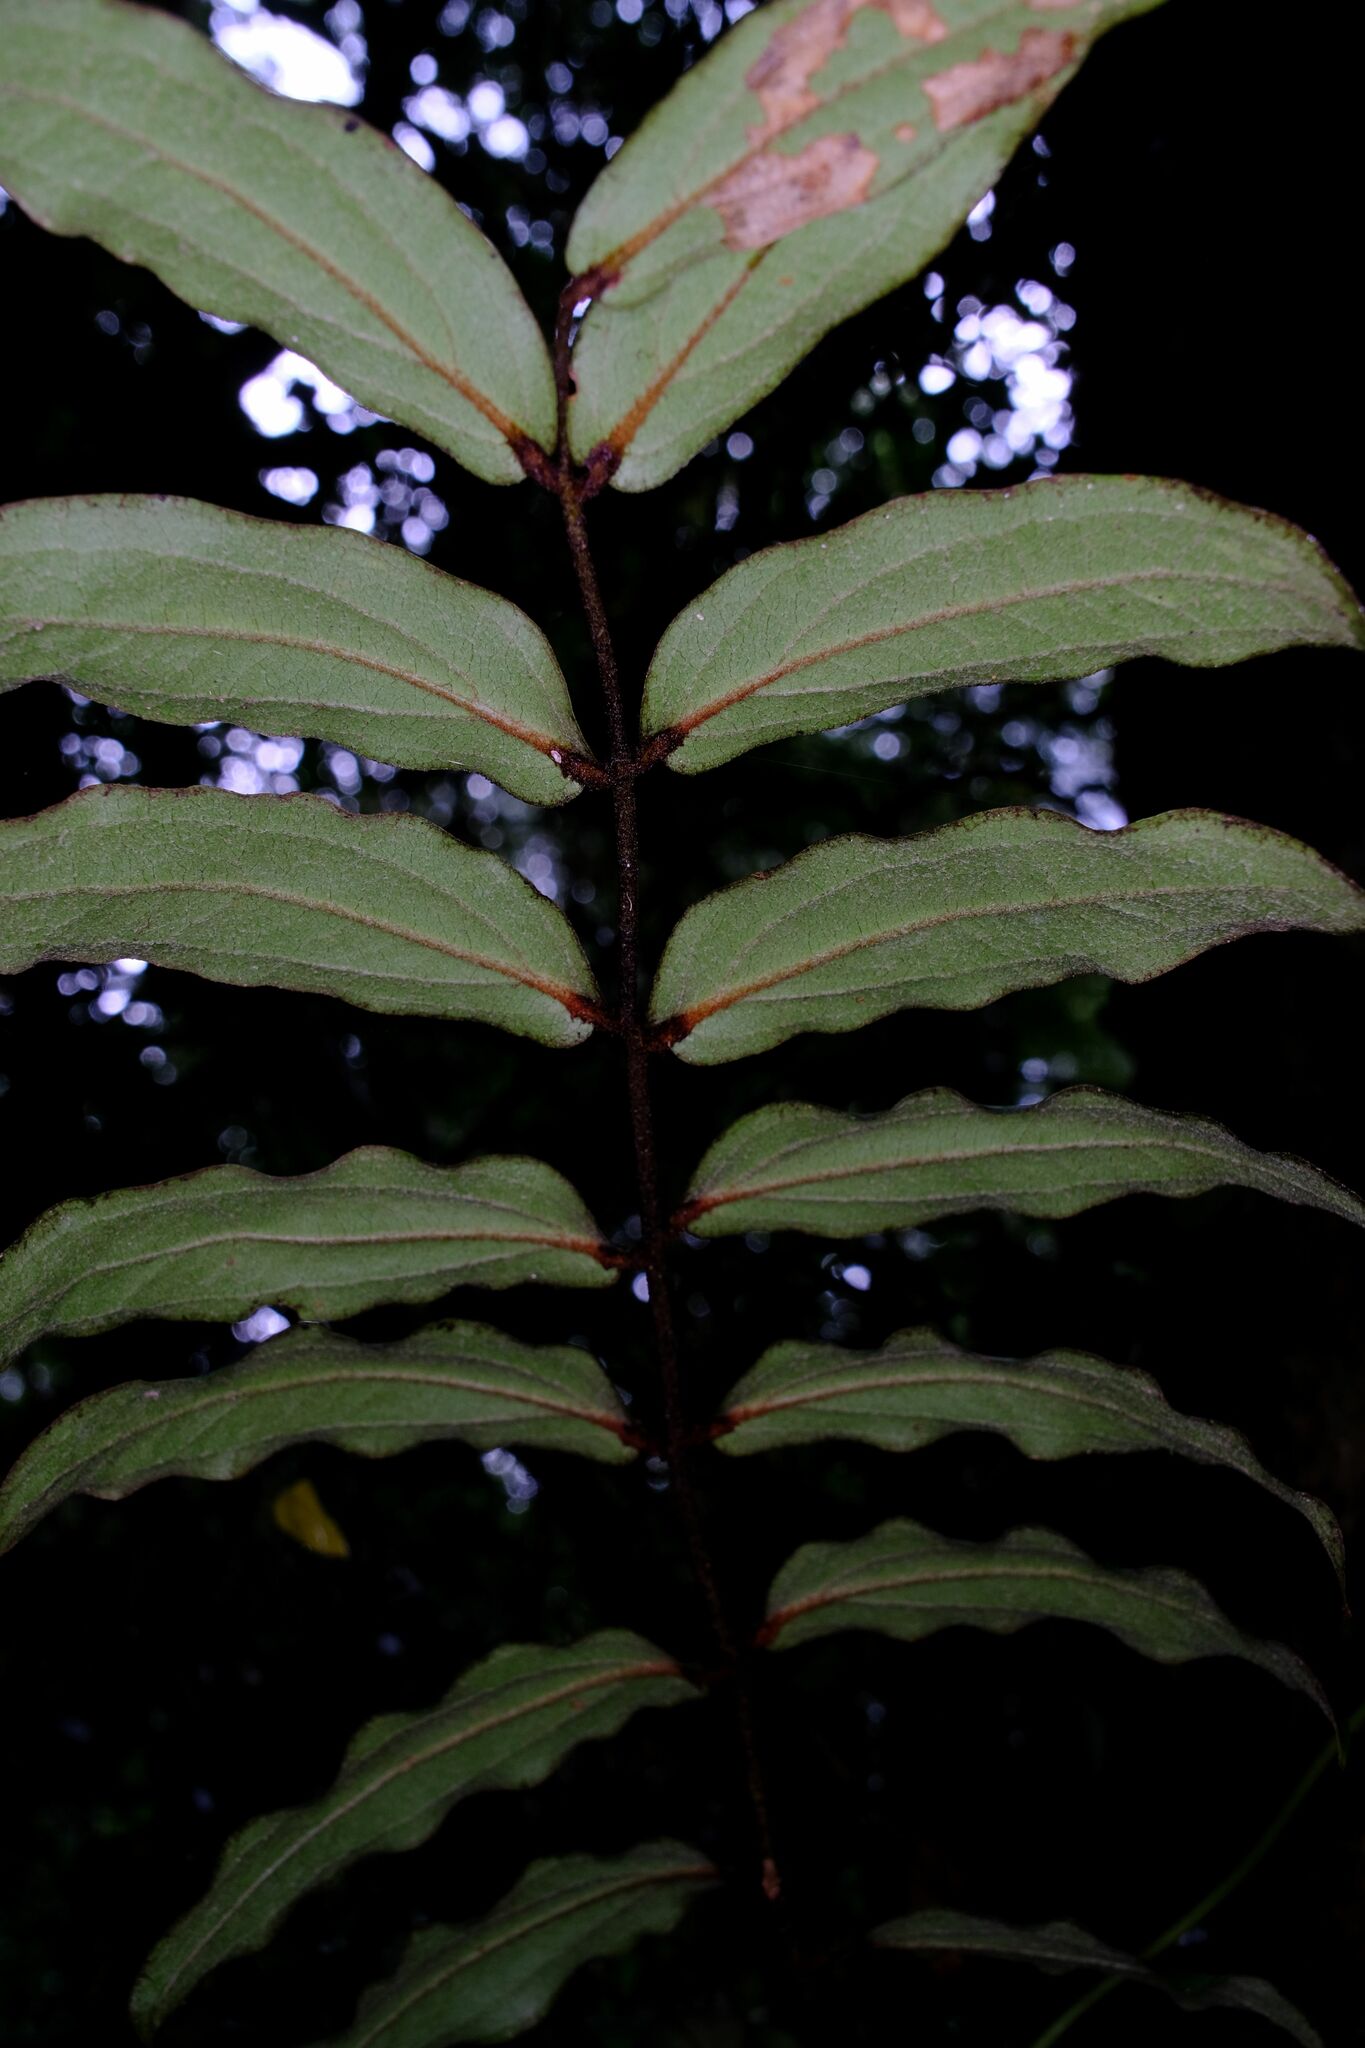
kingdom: Plantae
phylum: Tracheophyta
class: Liliopsida
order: Liliales
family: Ripogonaceae
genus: Ripogonum
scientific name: Ripogonum elseyanum
